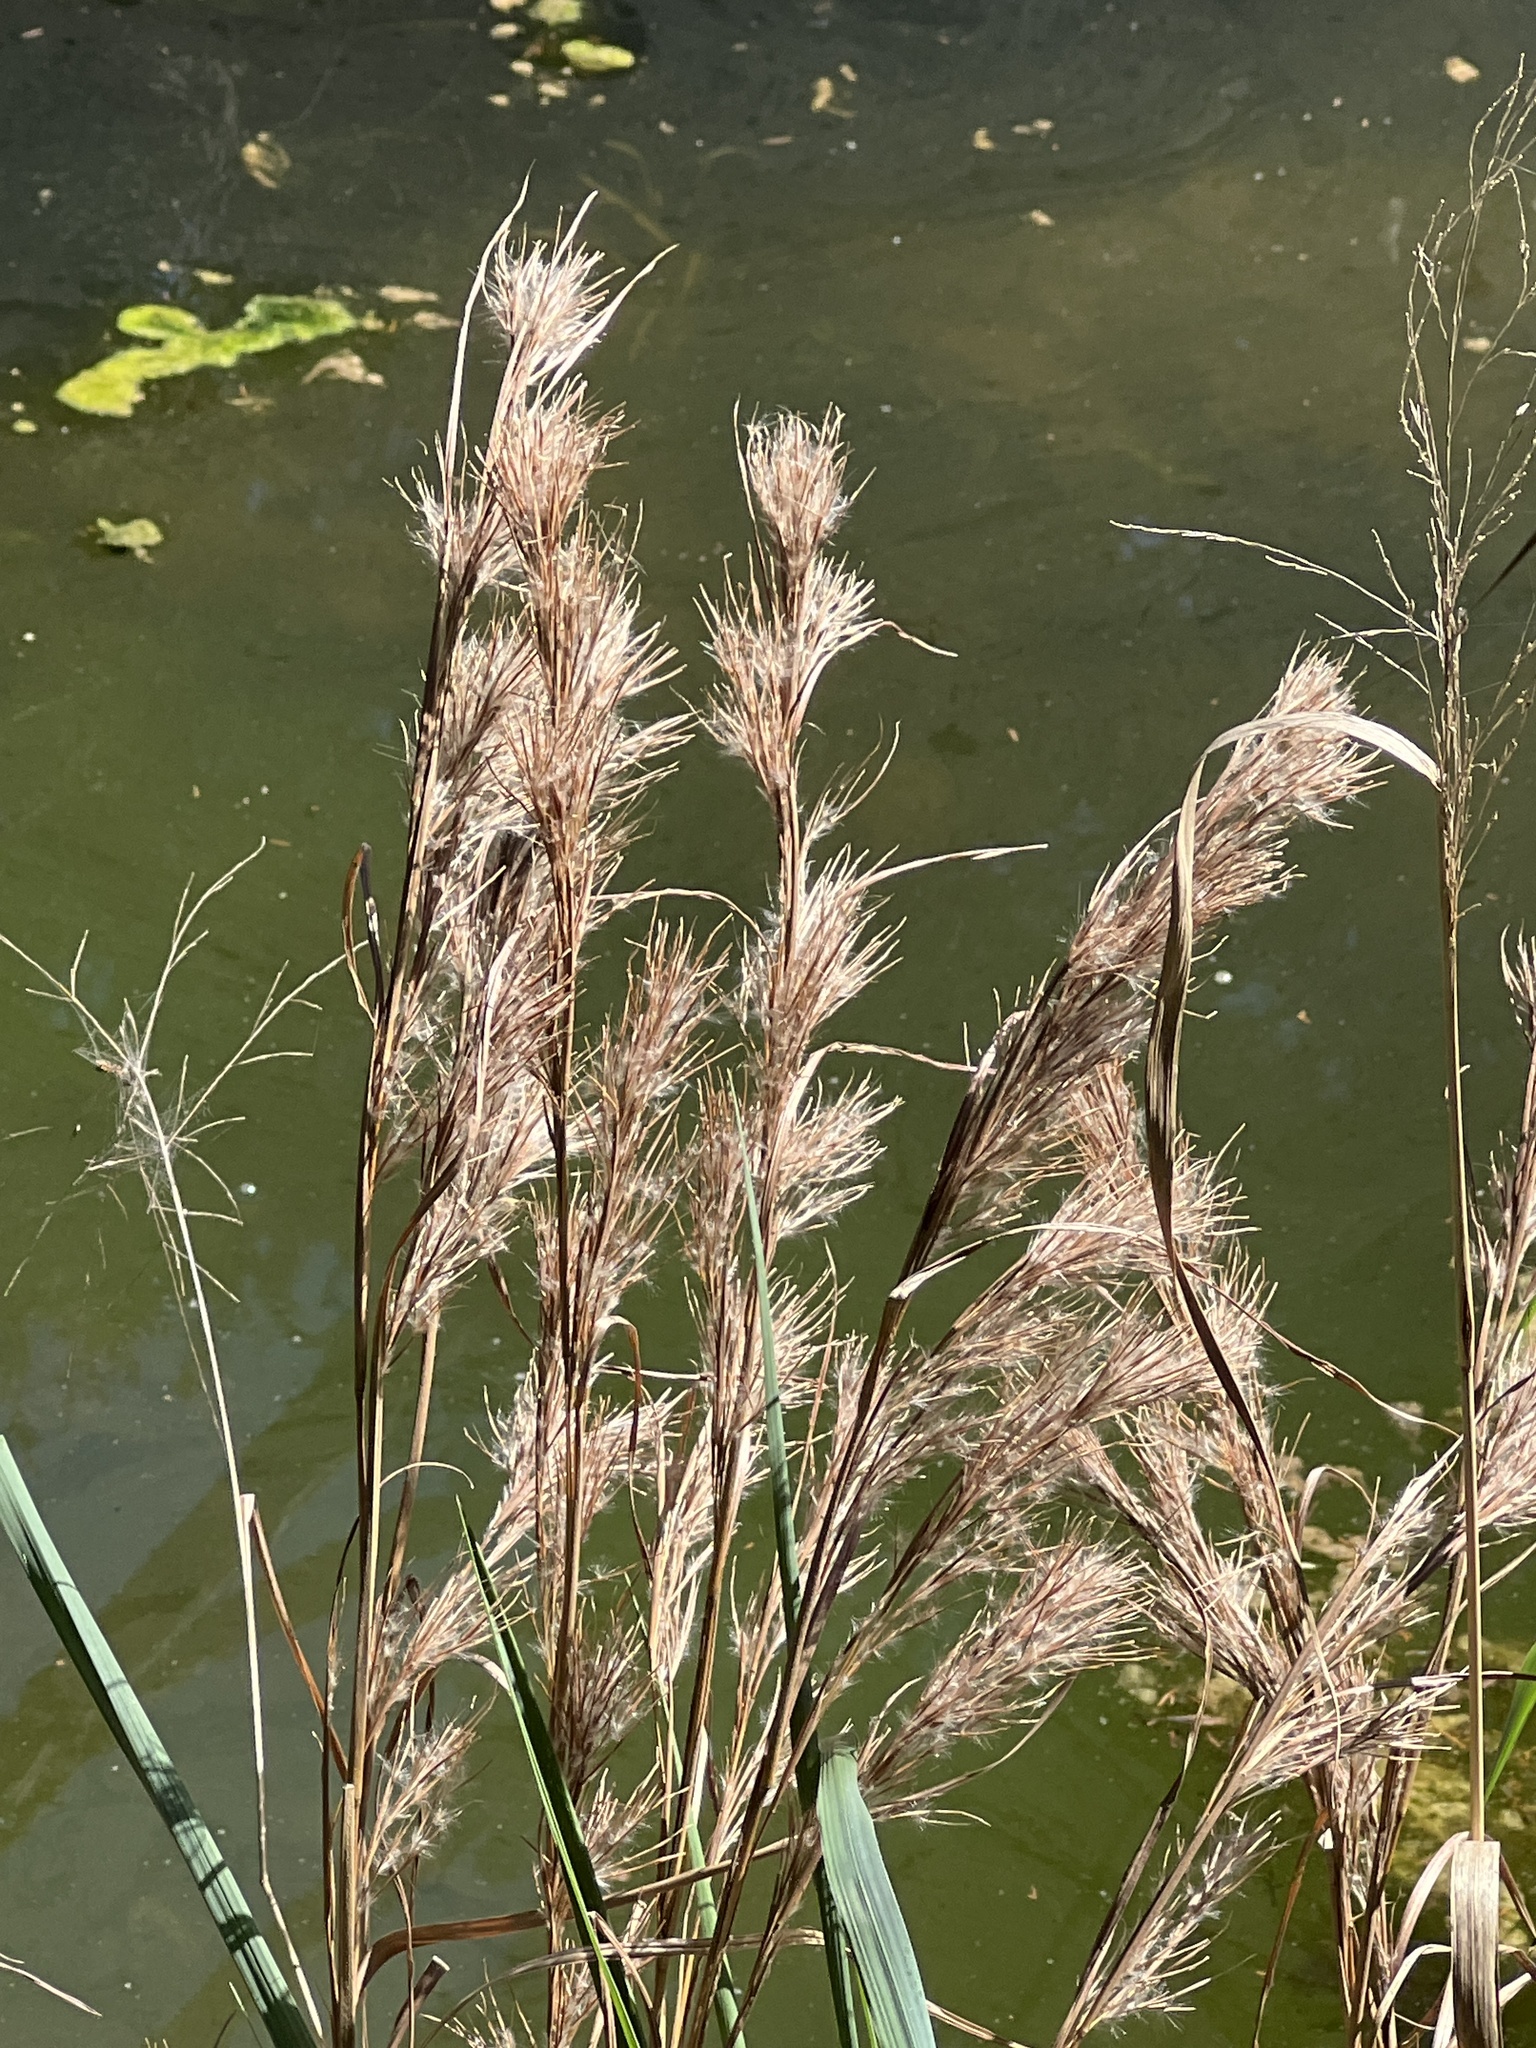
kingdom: Plantae
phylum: Tracheophyta
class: Liliopsida
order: Poales
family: Poaceae
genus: Andropogon
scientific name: Andropogon tenuispatheus
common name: Bushy bluestem
